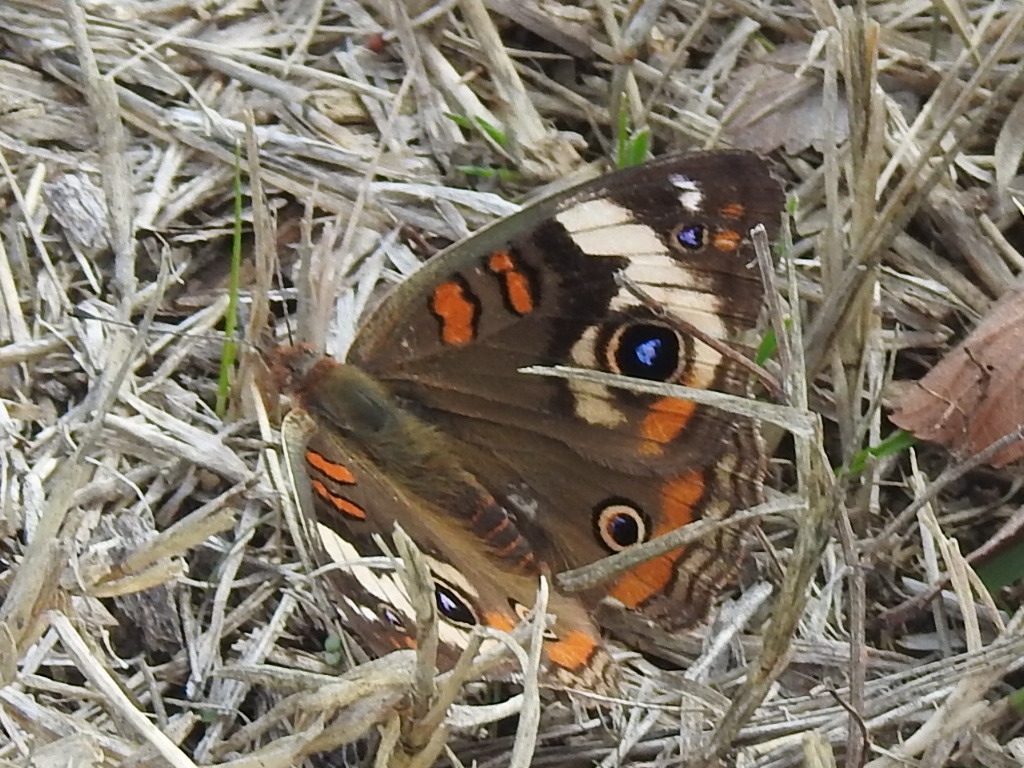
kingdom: Animalia
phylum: Arthropoda
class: Insecta
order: Lepidoptera
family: Nymphalidae
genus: Junonia
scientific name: Junonia coenia
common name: Common buckeye
